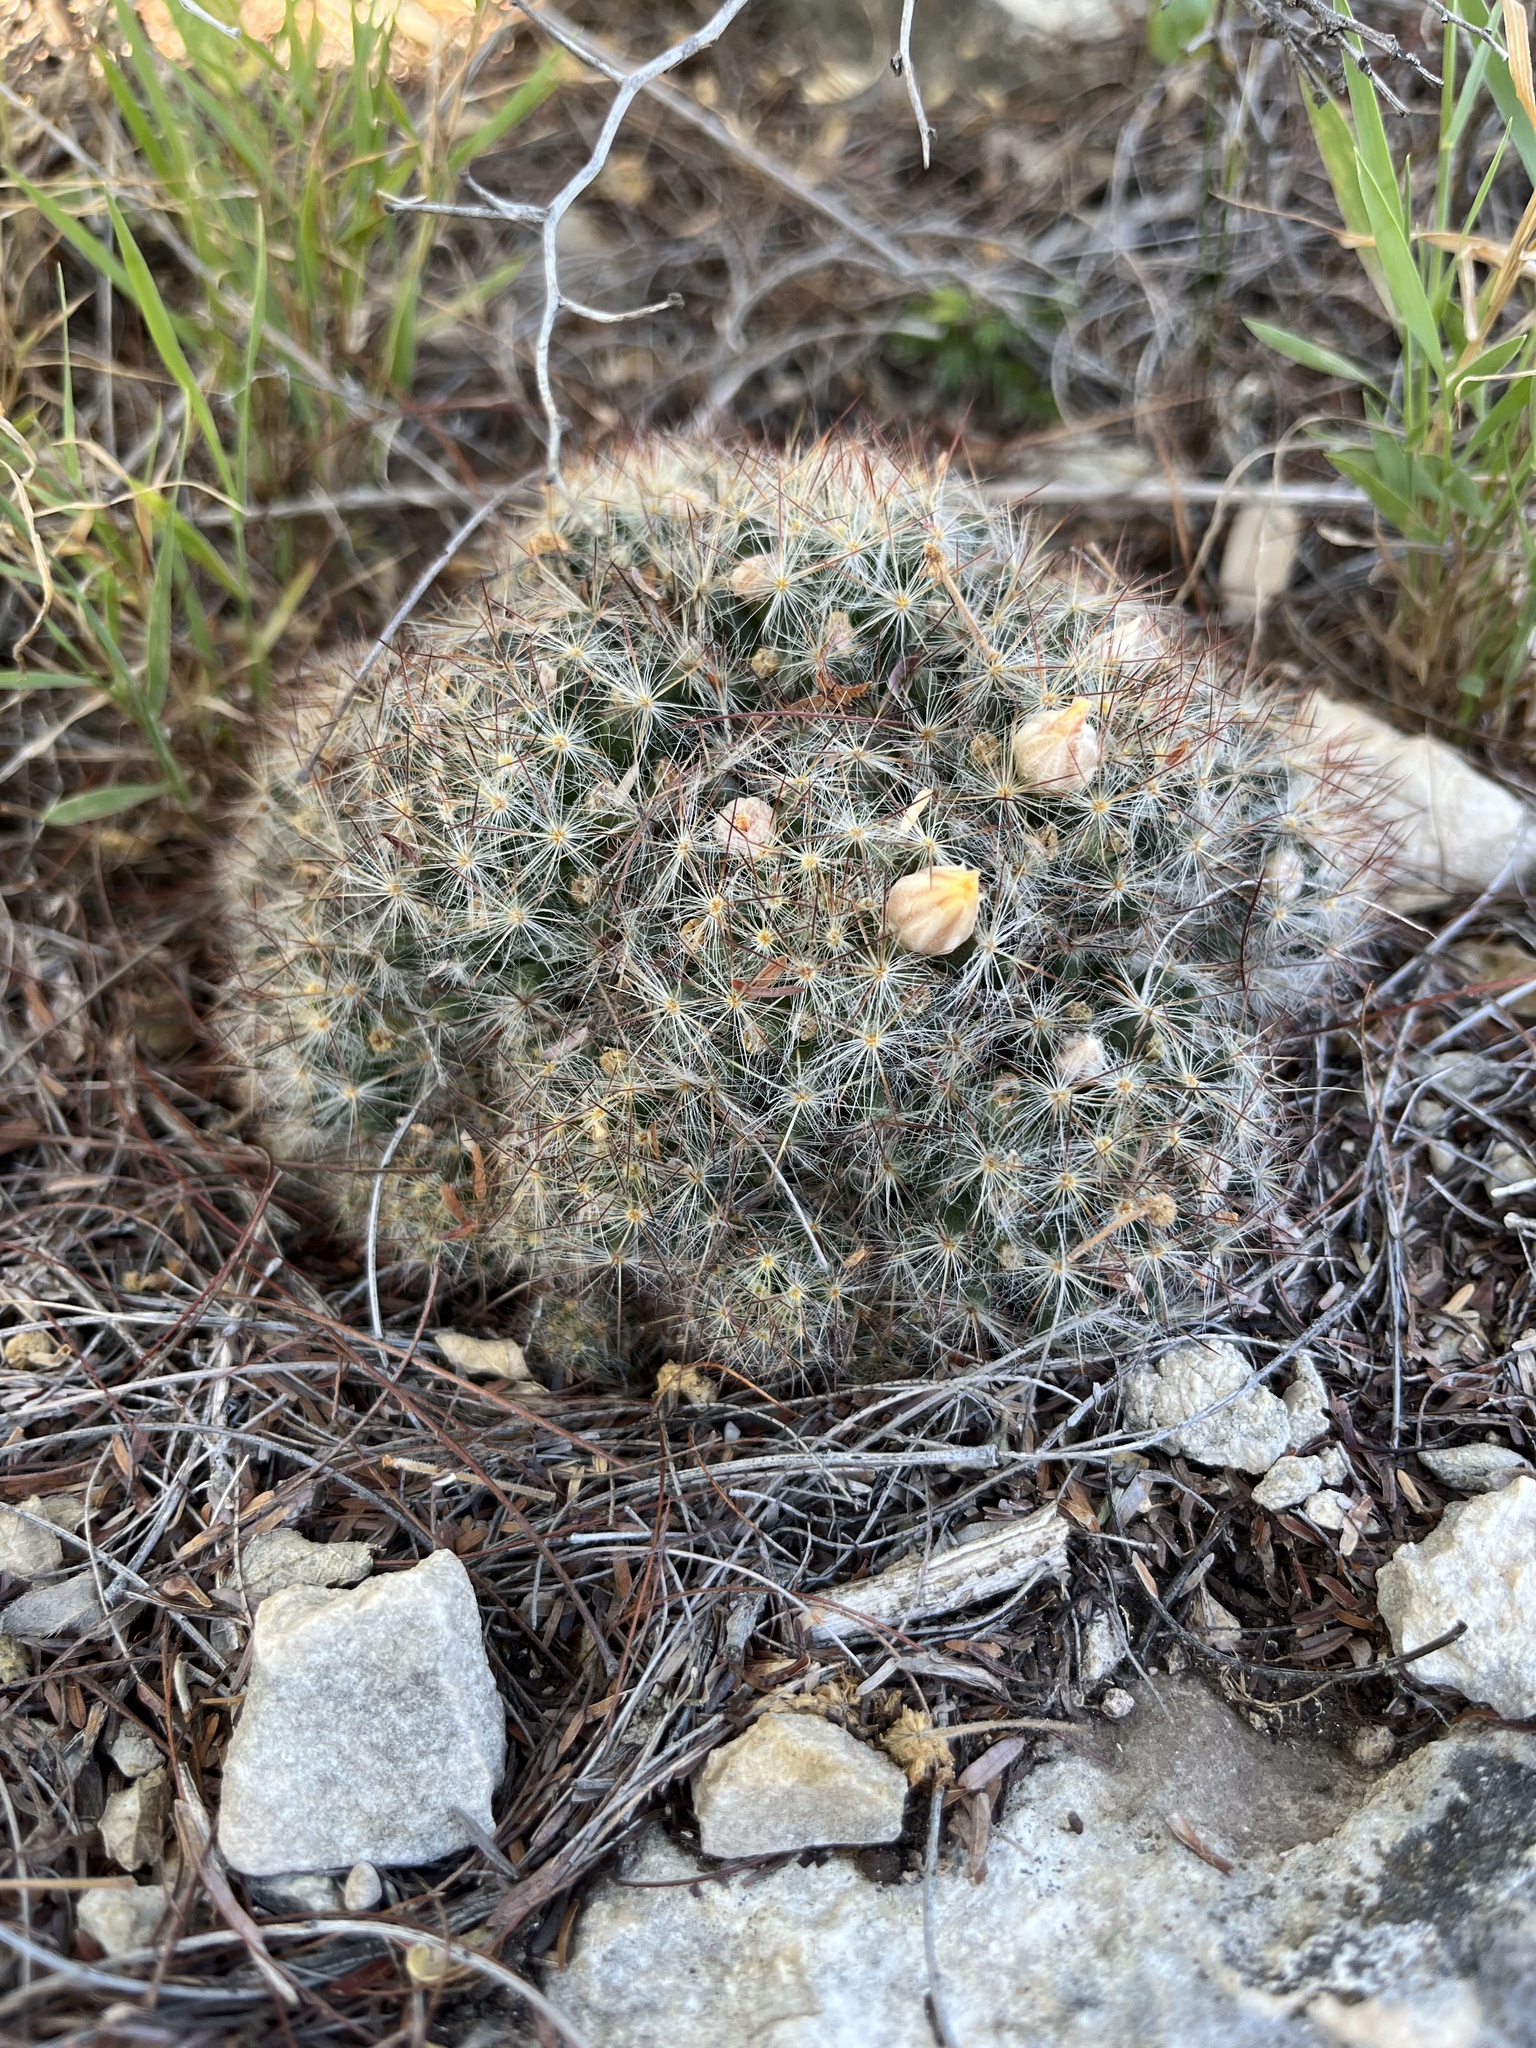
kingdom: Plantae
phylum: Tracheophyta
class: Magnoliopsida
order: Caryophyllales
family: Cactaceae
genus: Mammillaria
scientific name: Mammillaria prolifera
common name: Texas nipple cactus
